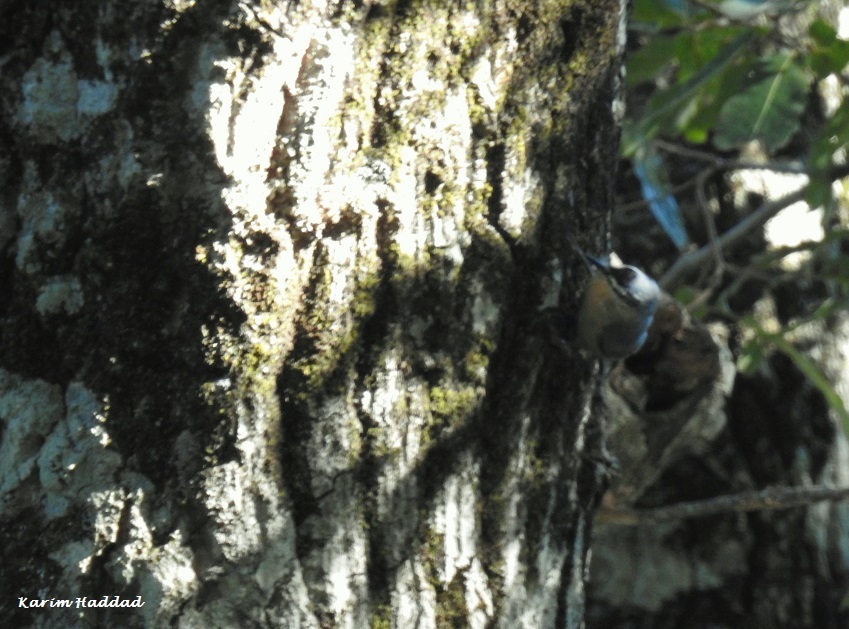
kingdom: Animalia
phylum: Chordata
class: Aves
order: Passeriformes
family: Sittidae
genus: Sitta
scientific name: Sitta ledanti
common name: Algerian nuthatch
